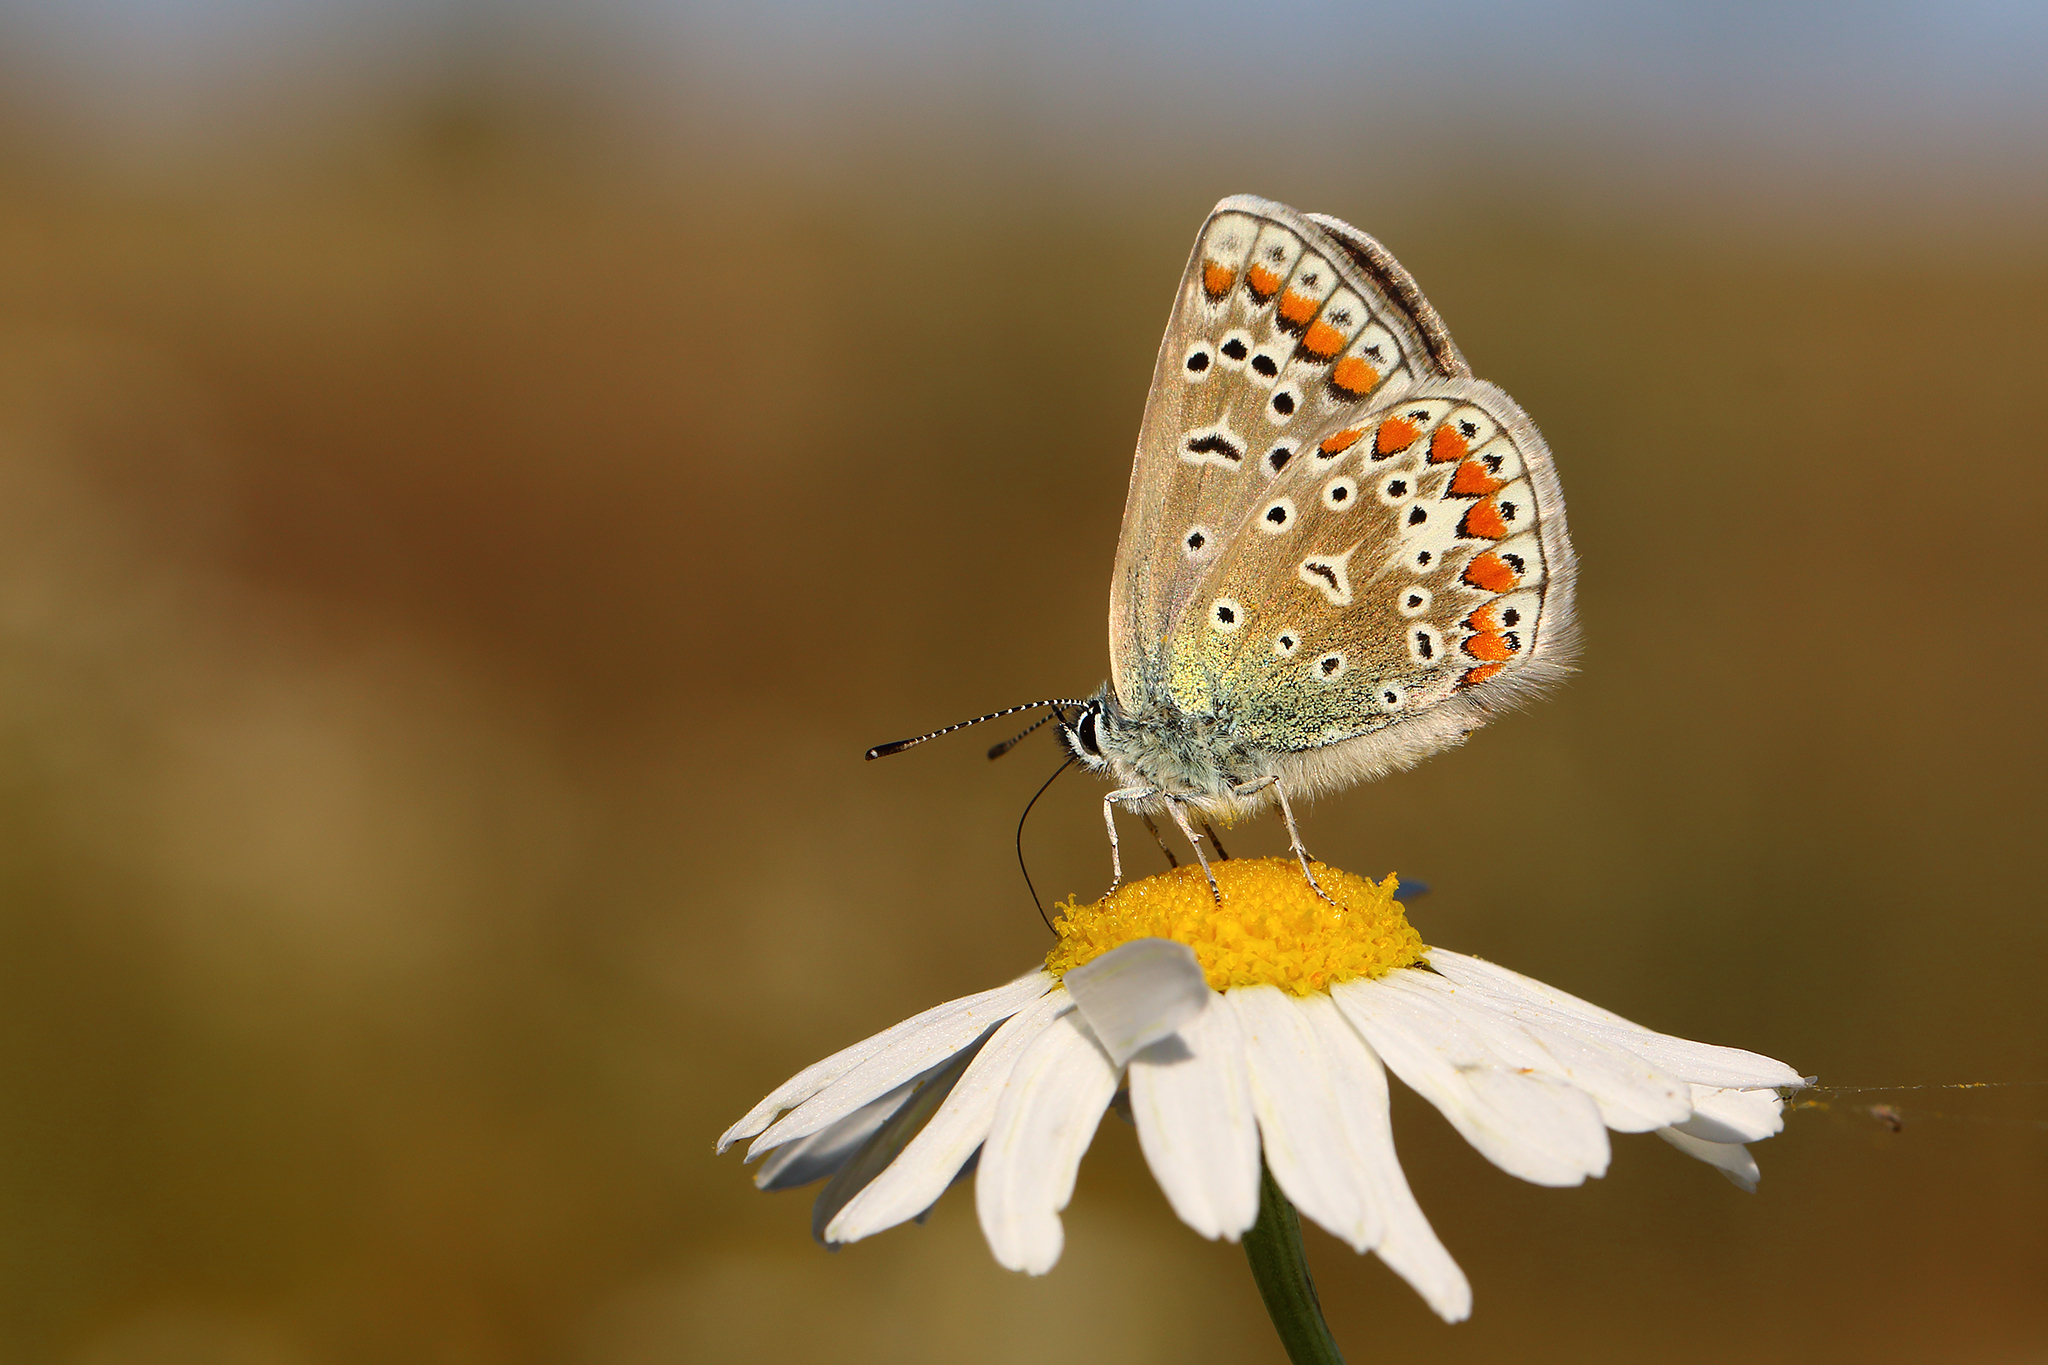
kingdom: Animalia
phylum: Arthropoda
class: Insecta
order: Lepidoptera
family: Lycaenidae
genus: Polyommatus
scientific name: Polyommatus icarus
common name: Common blue
